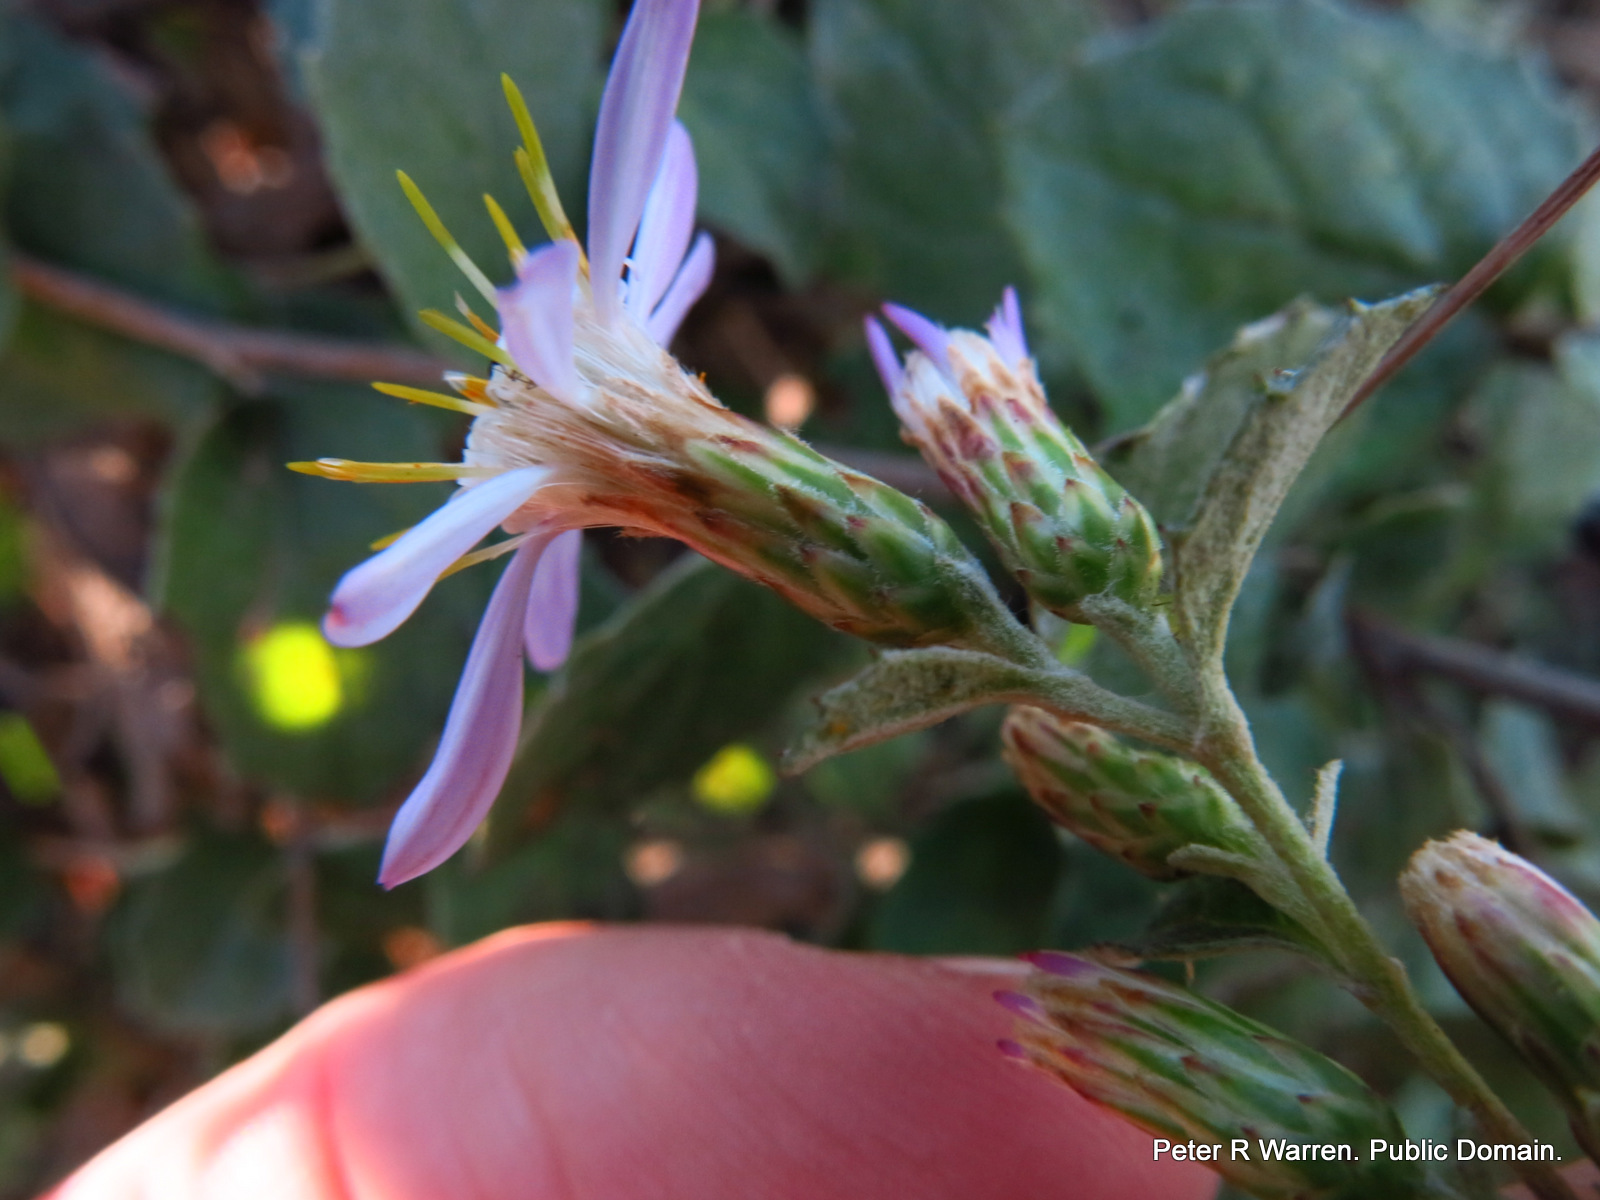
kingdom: Plantae
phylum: Tracheophyta
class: Magnoliopsida
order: Asterales
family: Asteraceae
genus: Printzia
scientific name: Printzia auriculata
